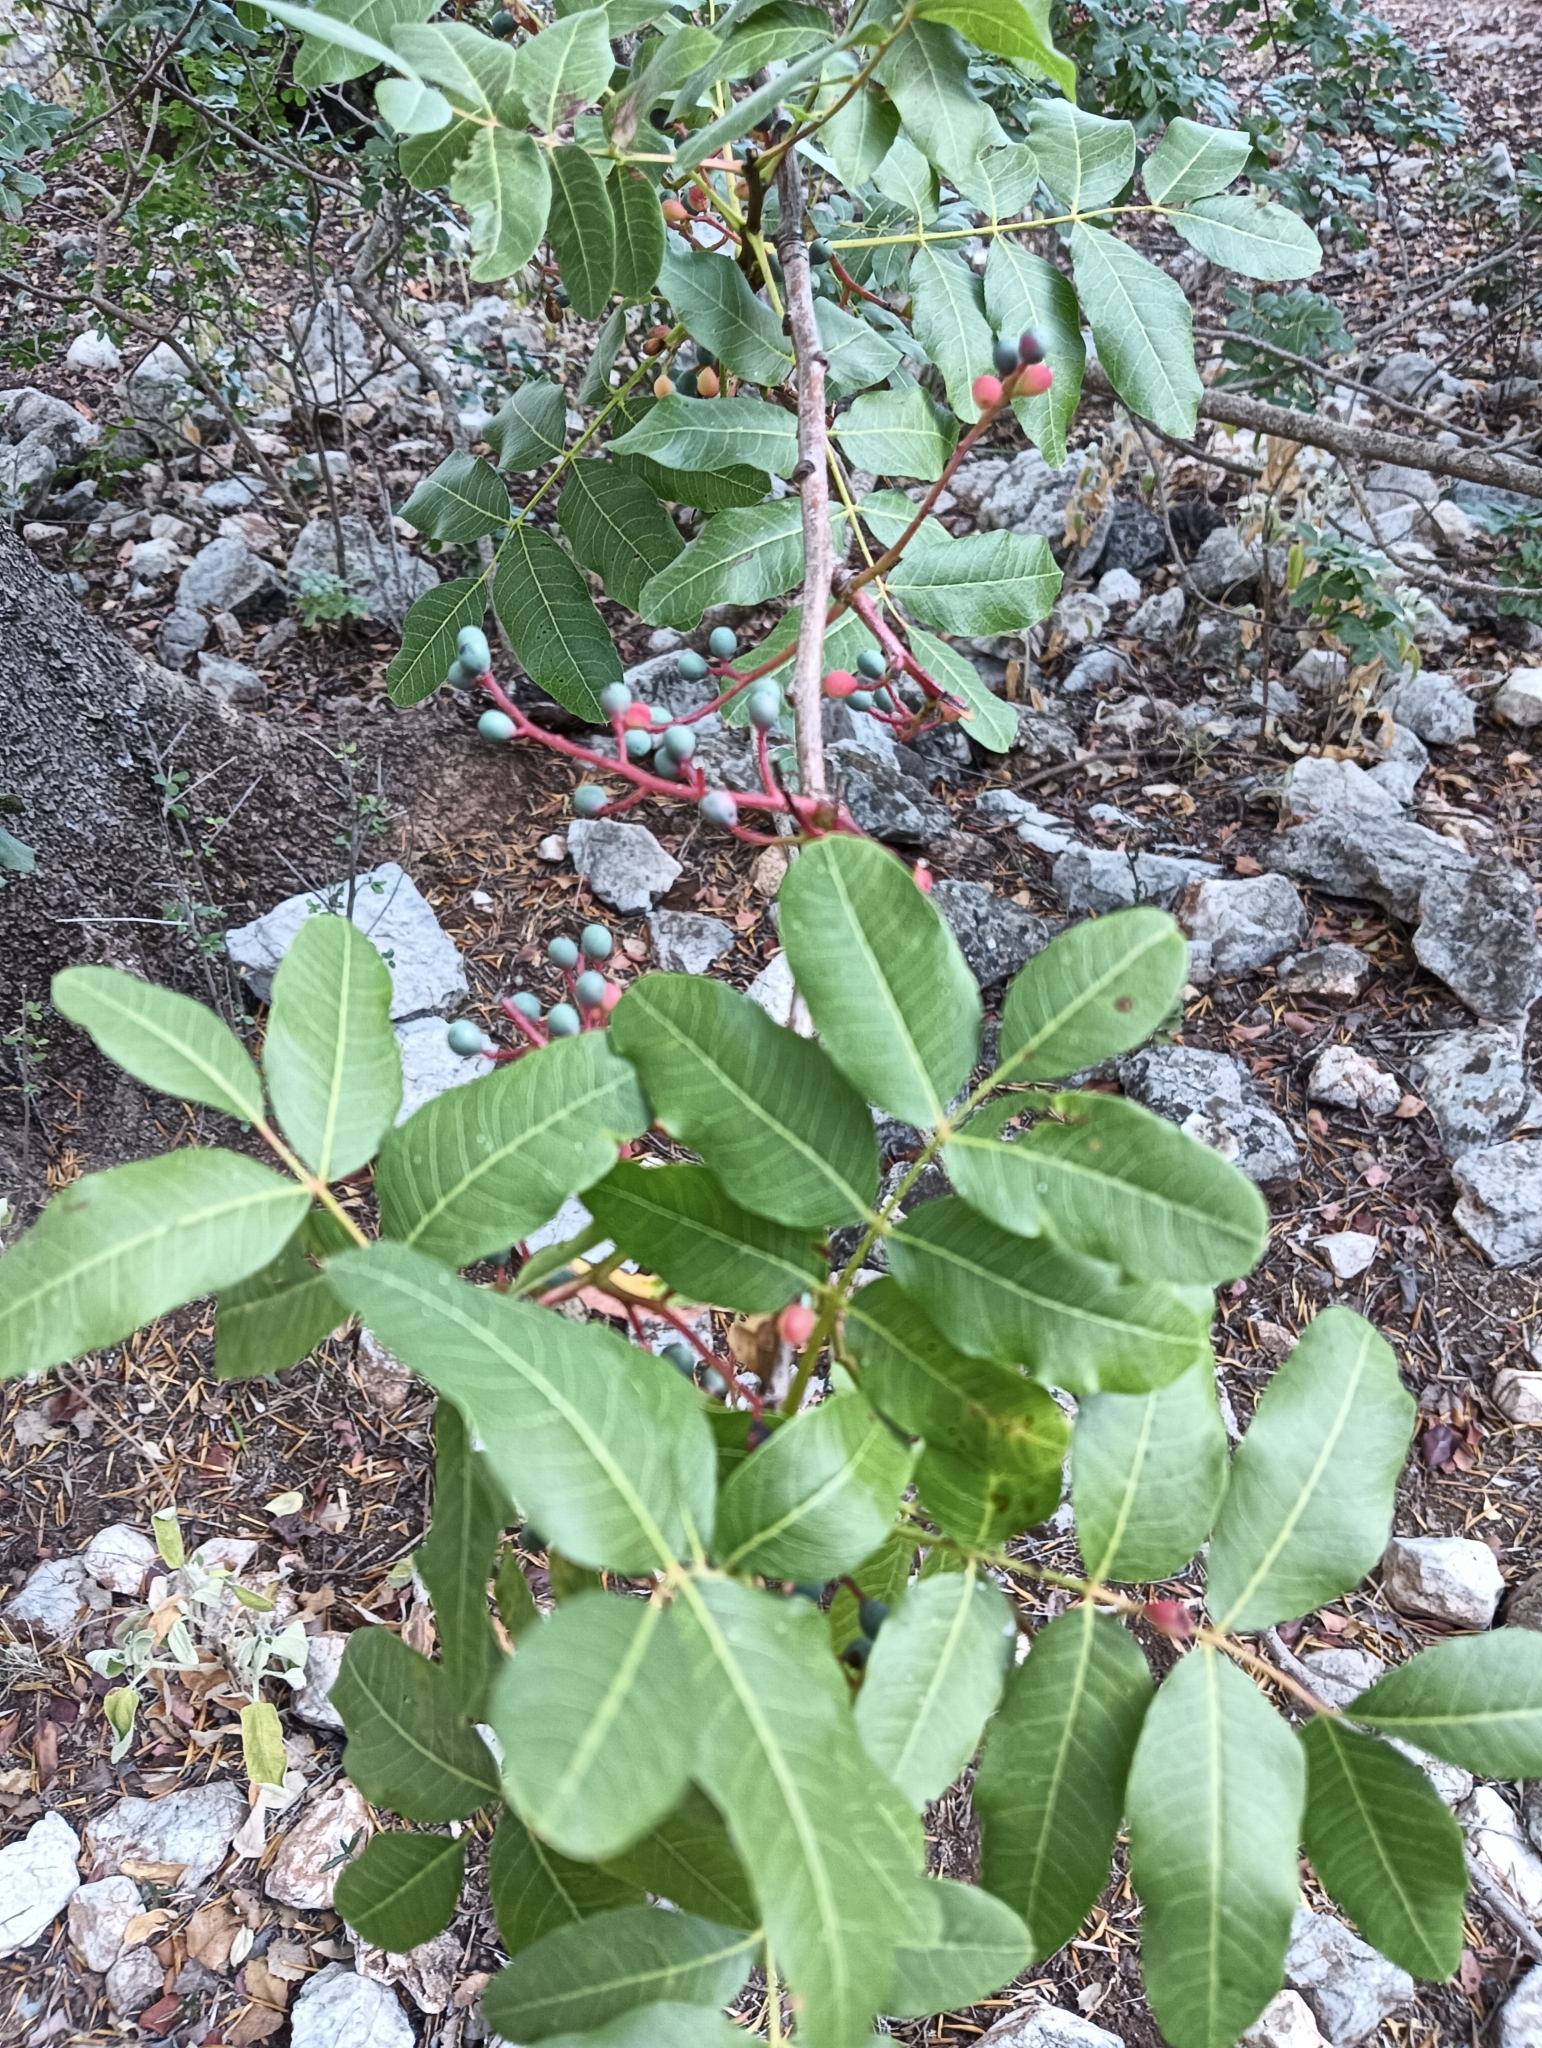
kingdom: Plantae
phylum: Tracheophyta
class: Magnoliopsida
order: Sapindales
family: Anacardiaceae
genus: Pistacia
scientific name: Pistacia terebinthus
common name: Terebinth
